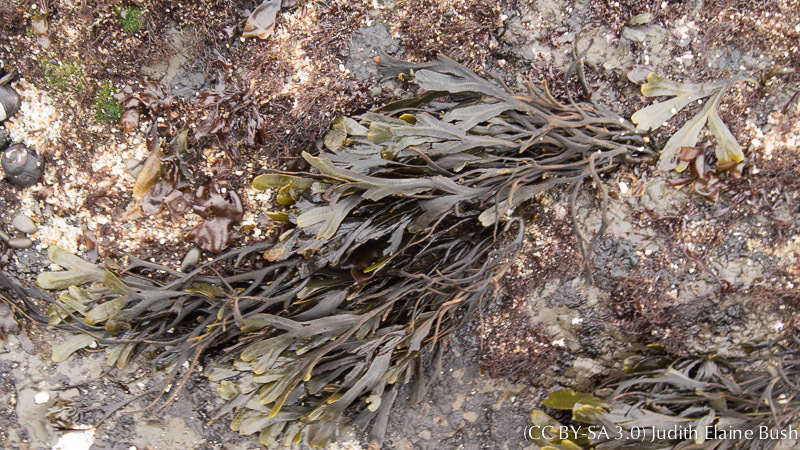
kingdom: Chromista
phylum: Ochrophyta
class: Phaeophyceae
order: Fucales
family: Fucaceae
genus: Fucus
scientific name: Fucus distichus
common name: Rockweed
